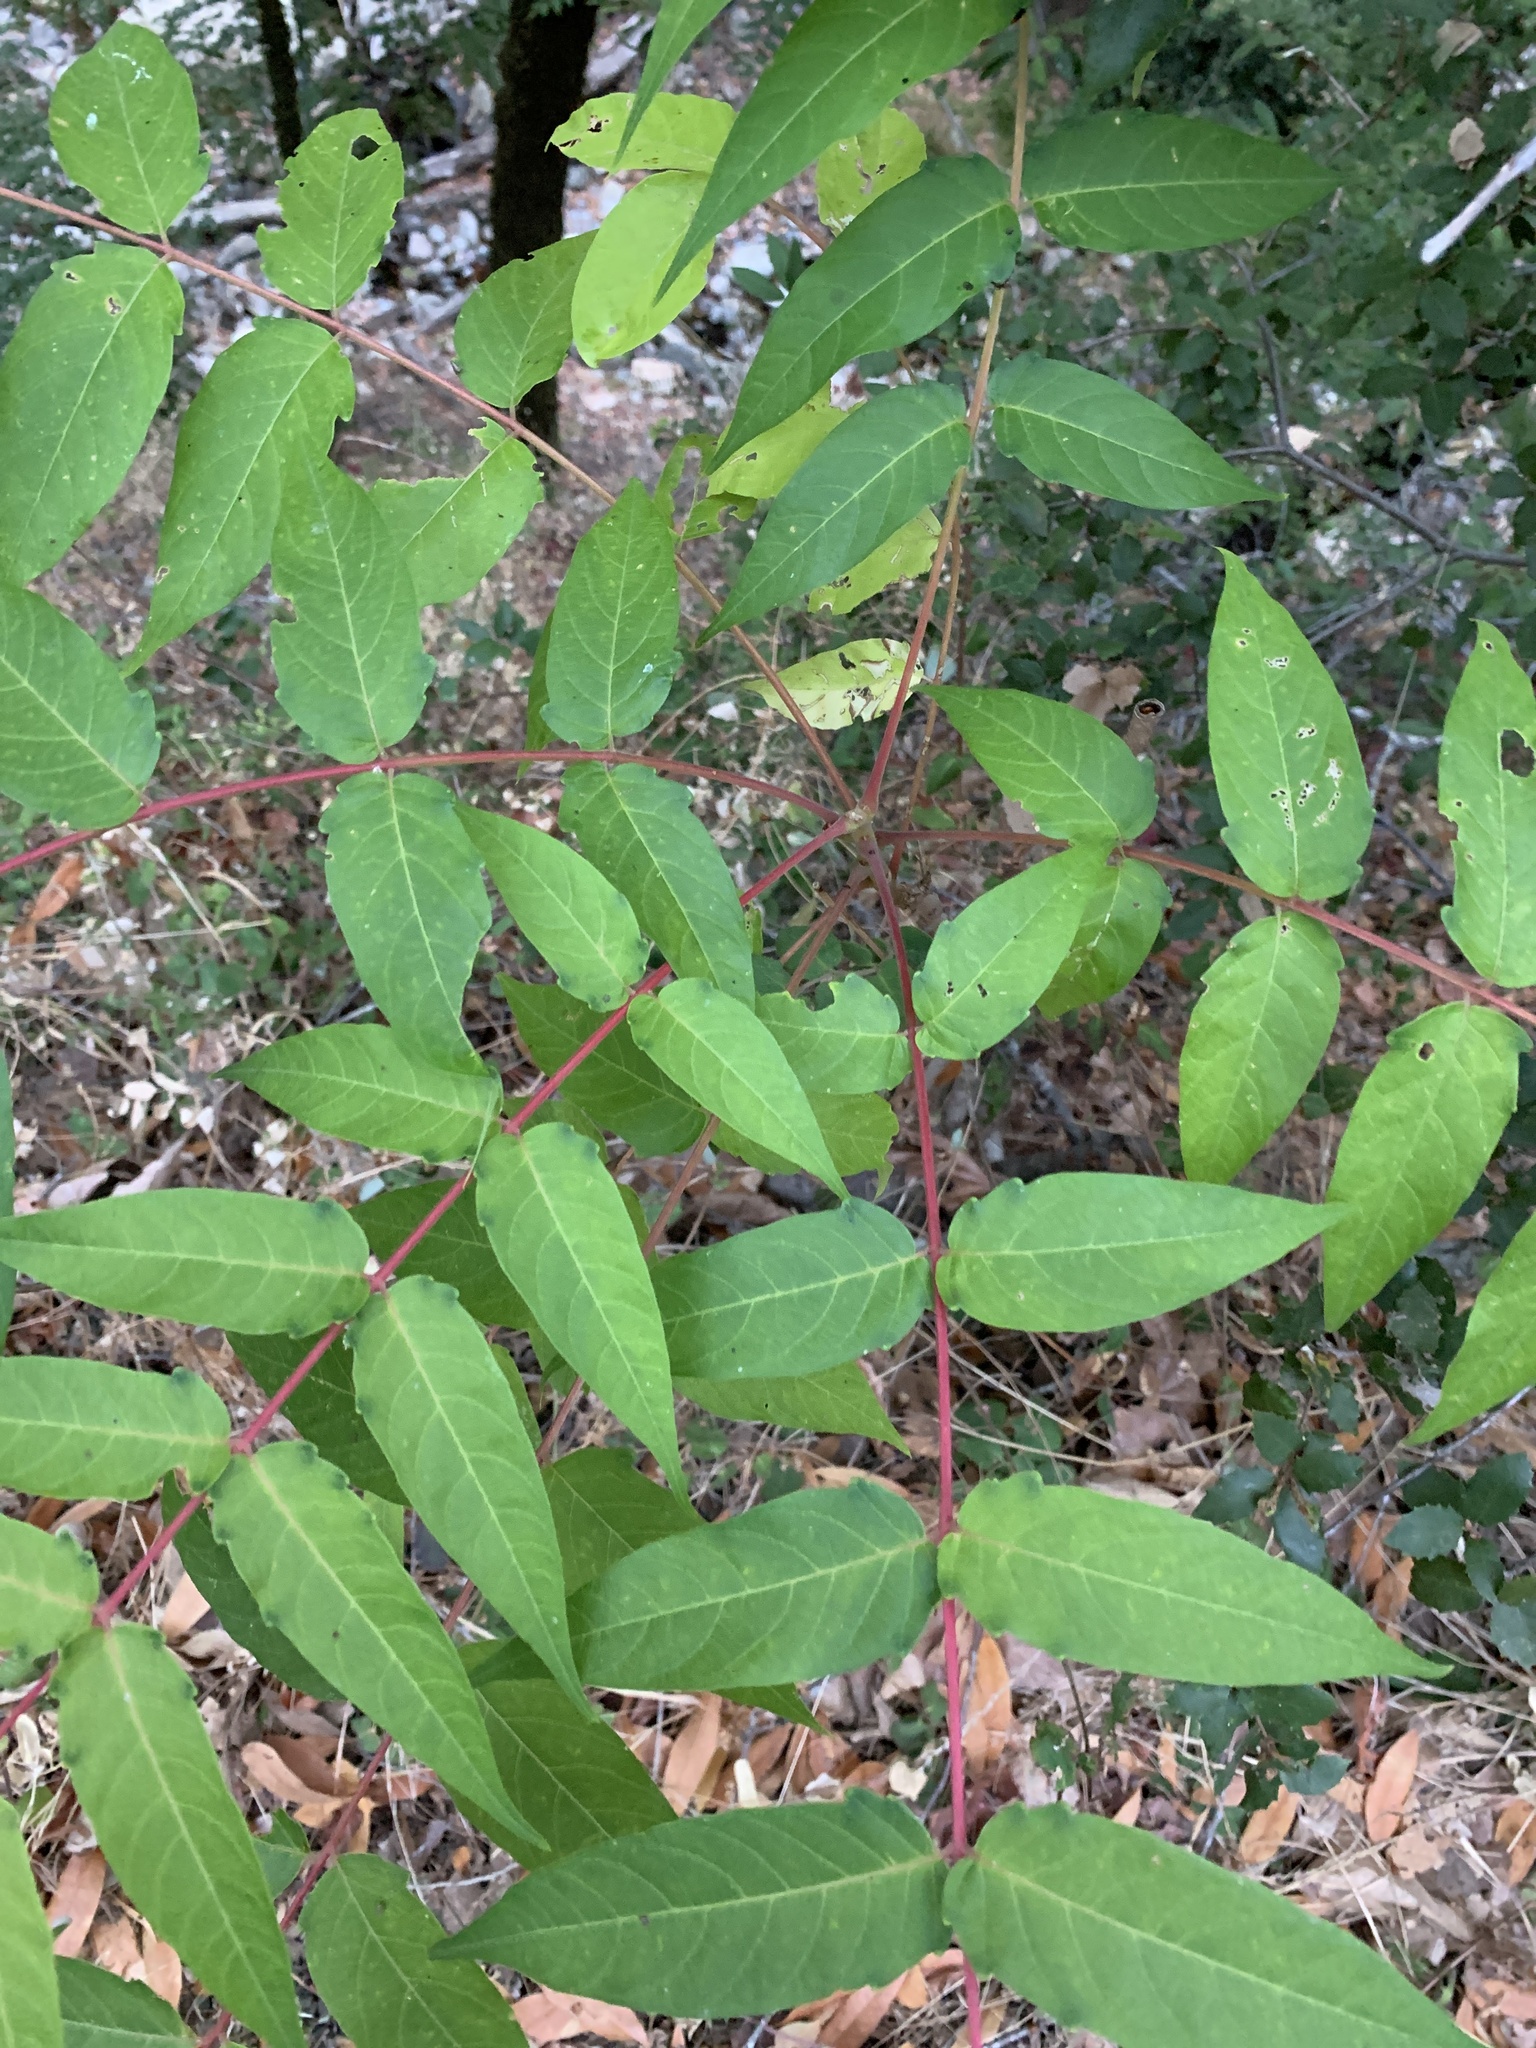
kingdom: Plantae
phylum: Tracheophyta
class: Magnoliopsida
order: Sapindales
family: Simaroubaceae
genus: Ailanthus
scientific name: Ailanthus altissima
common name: Tree-of-heaven
